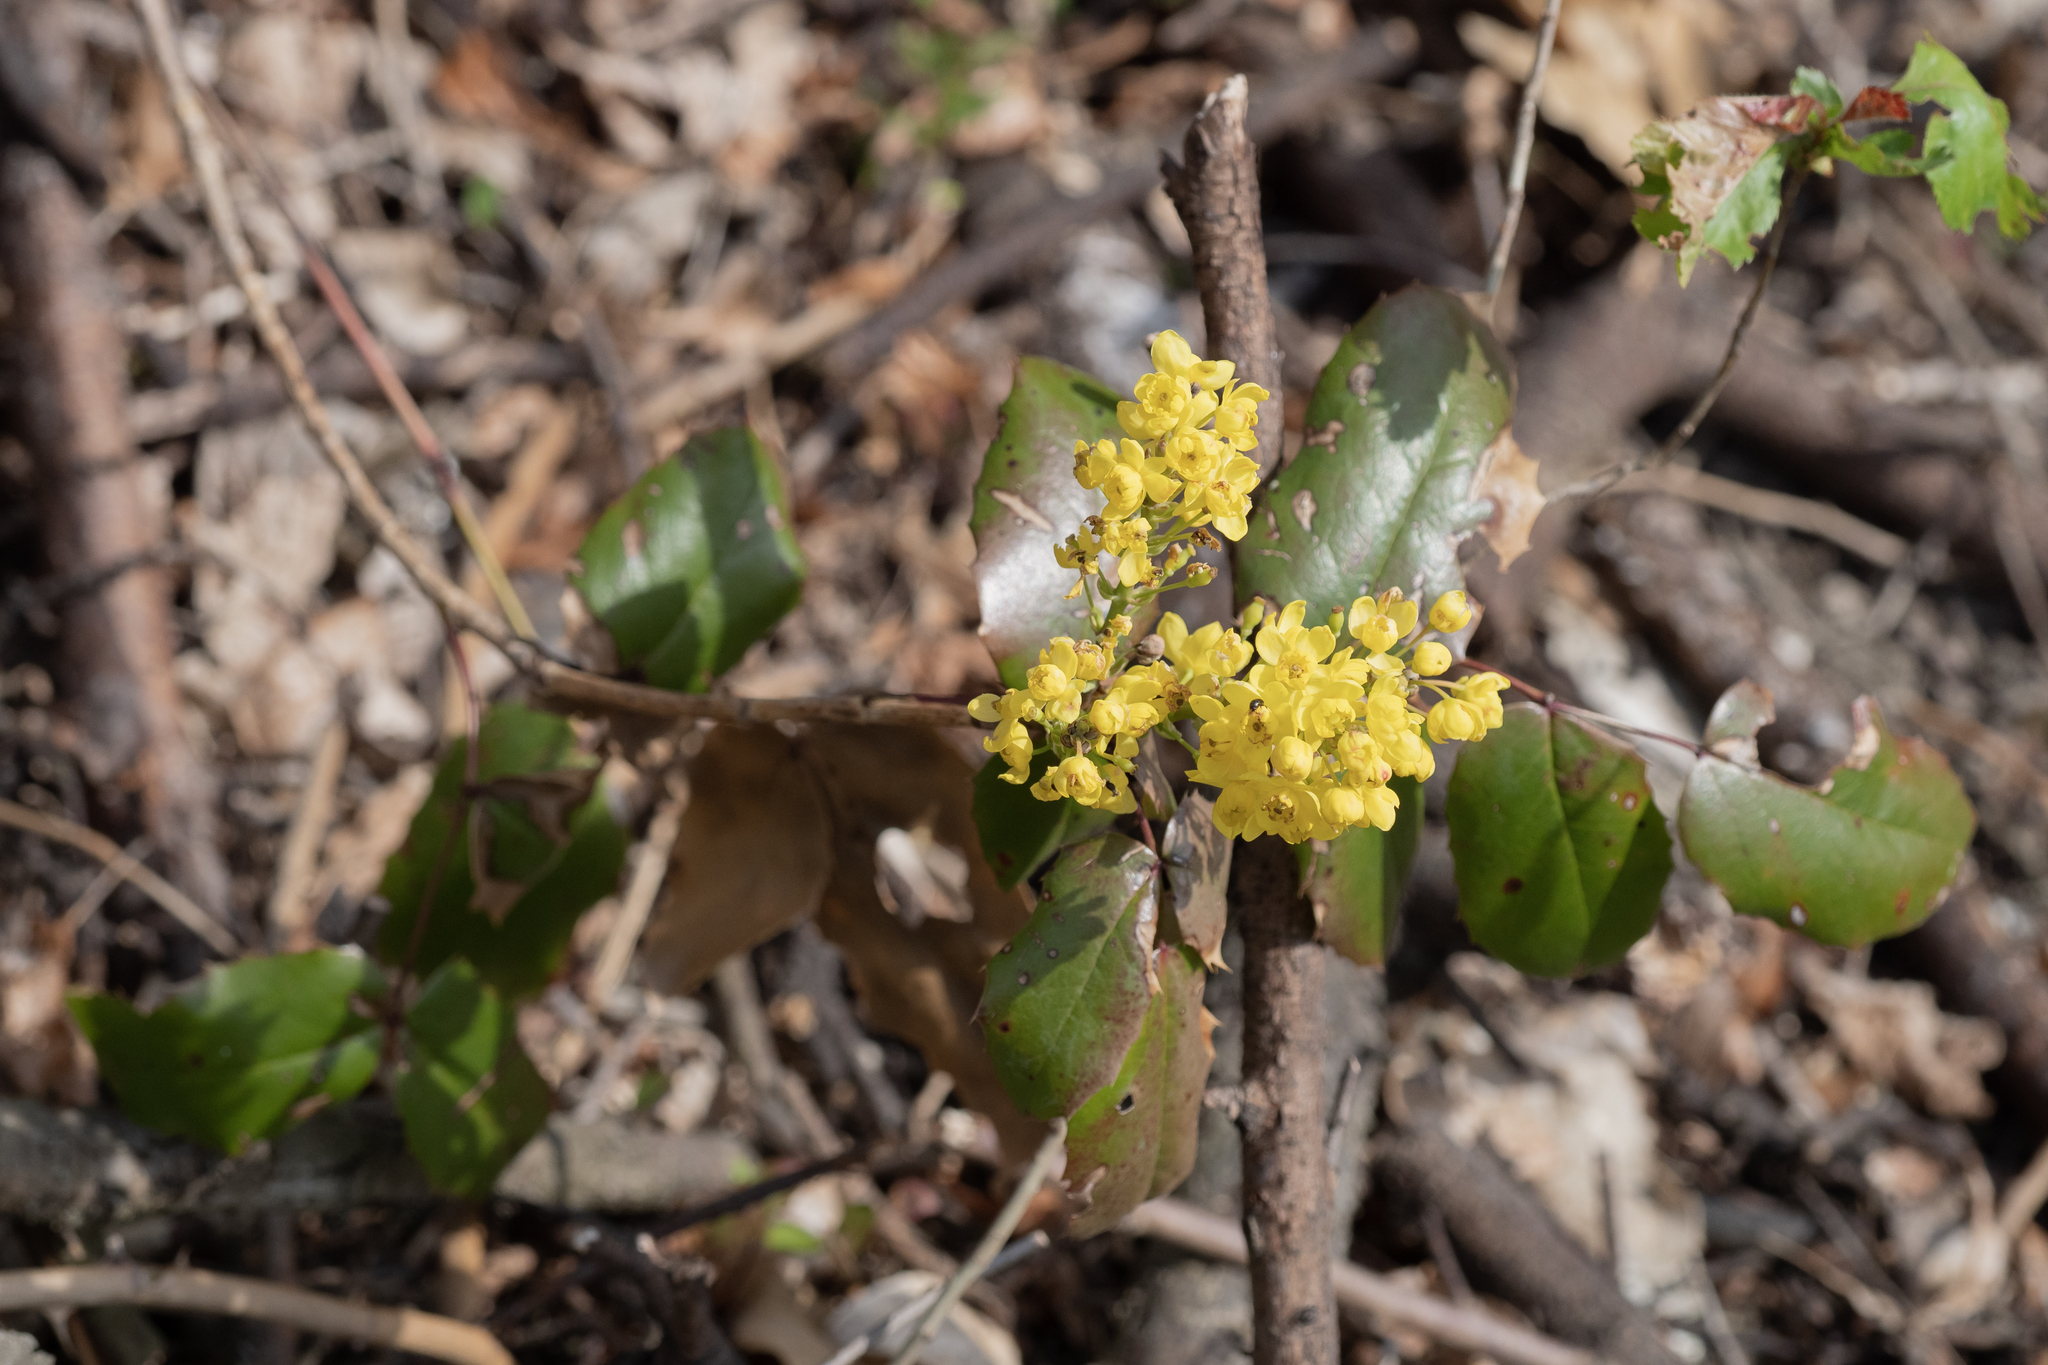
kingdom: Plantae
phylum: Tracheophyta
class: Magnoliopsida
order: Ranunculales
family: Berberidaceae
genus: Mahonia
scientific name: Mahonia aquifolium
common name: Oregon-grape
